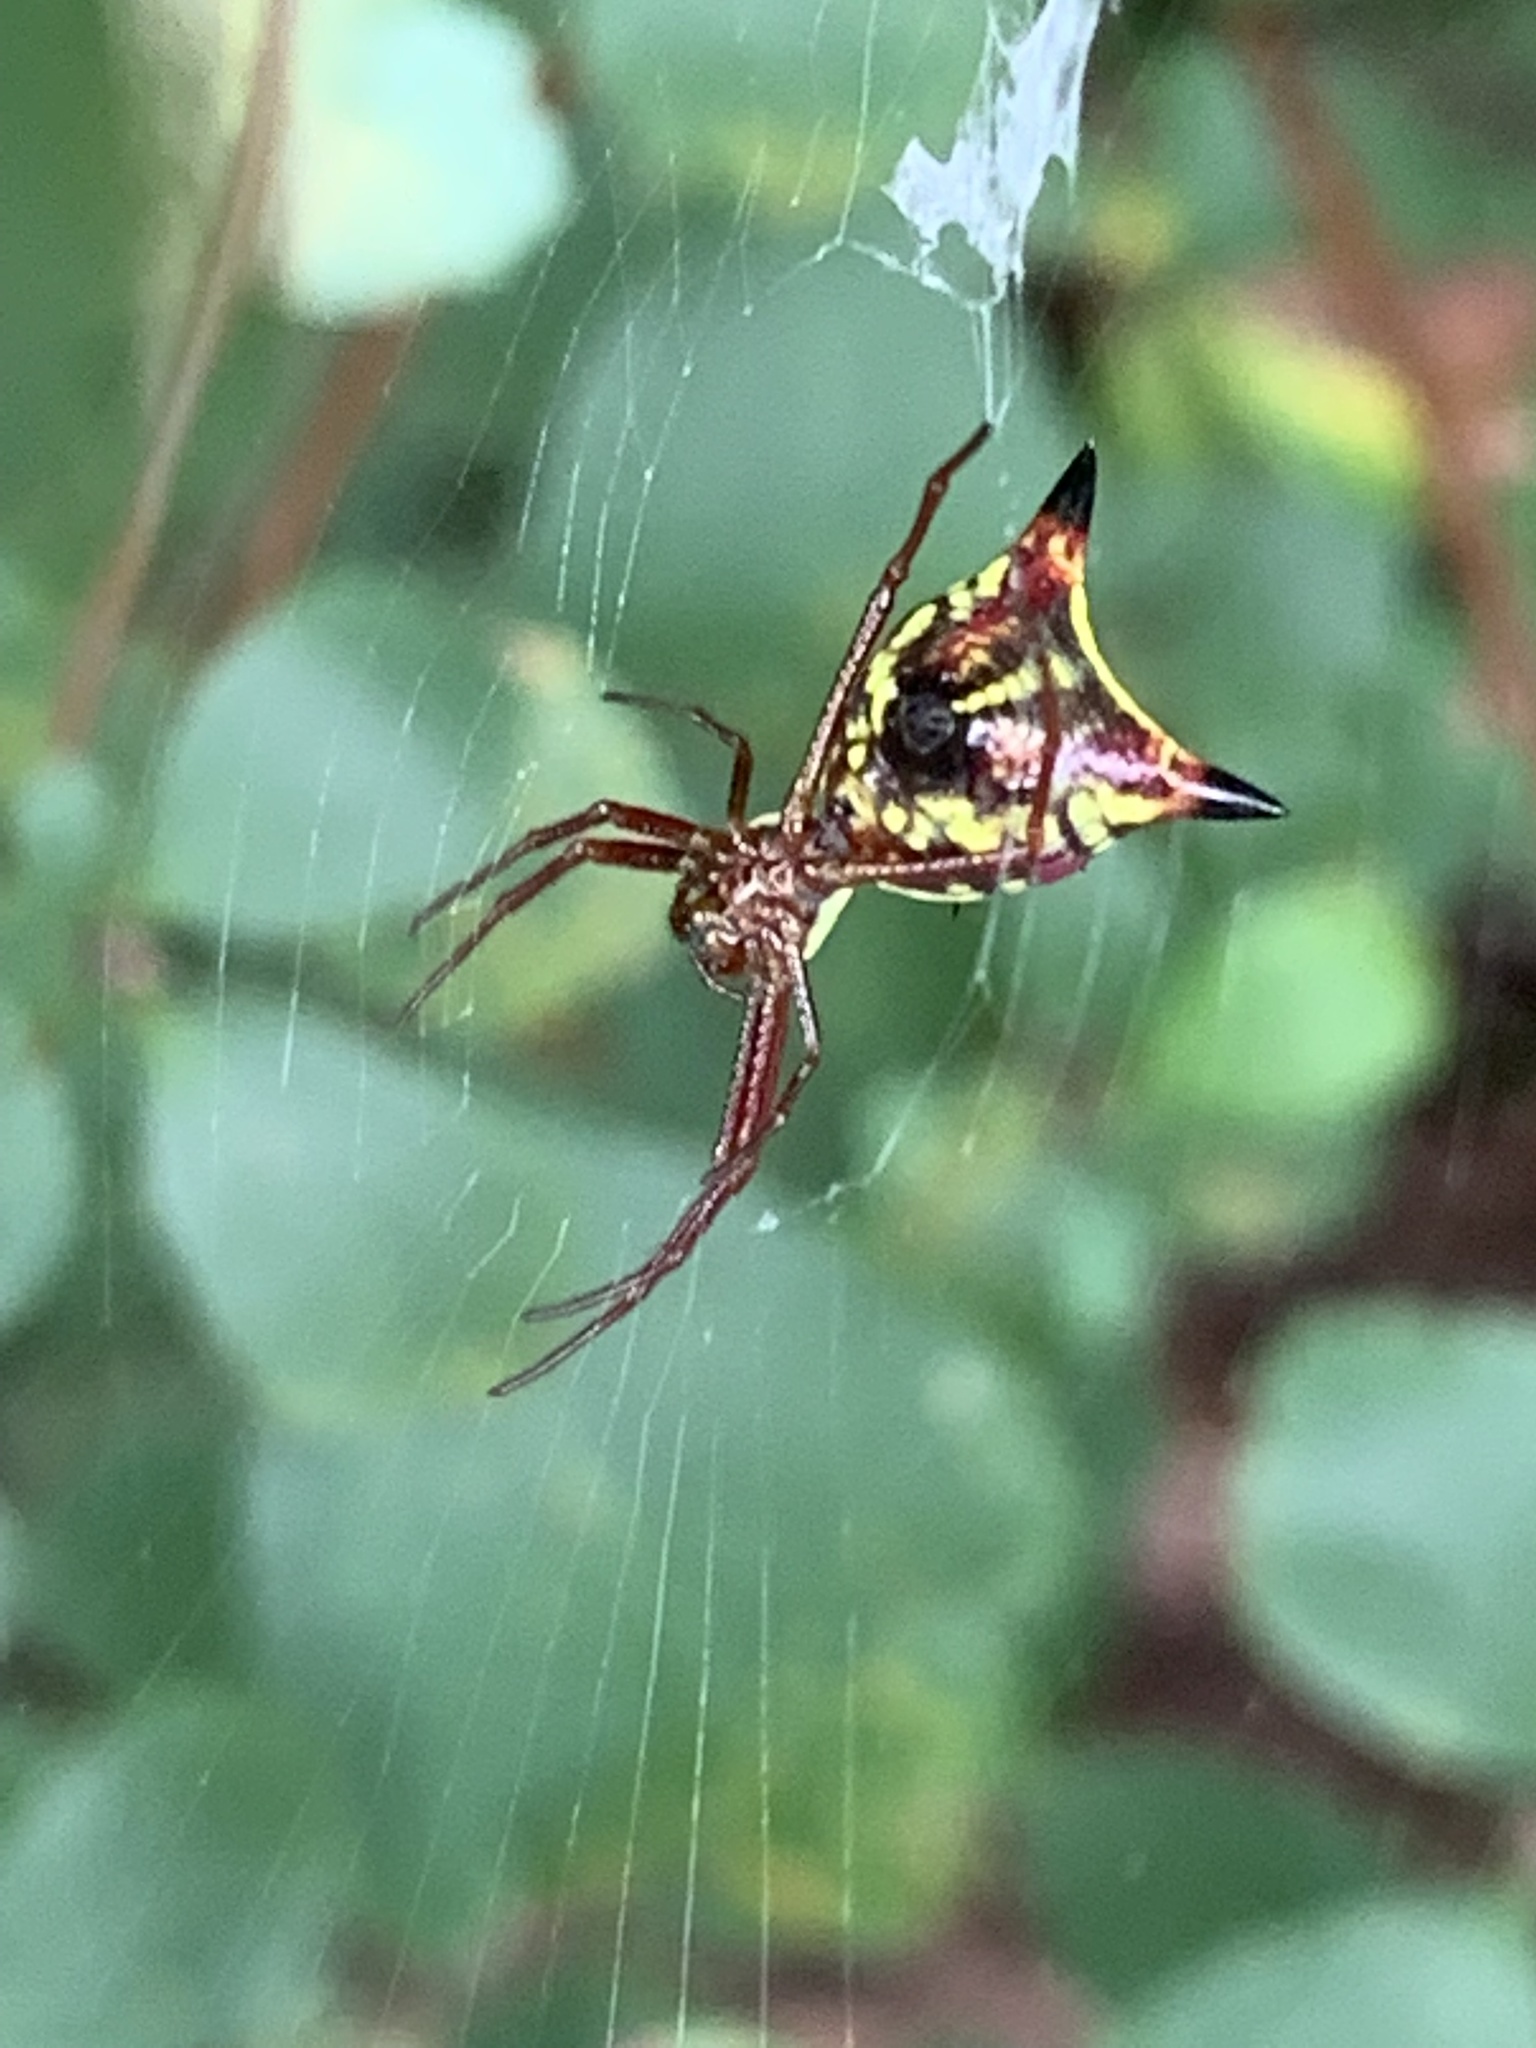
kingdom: Animalia
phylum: Arthropoda
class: Arachnida
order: Araneae
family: Araneidae
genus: Micrathena
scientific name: Micrathena sagittata
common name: Orb weavers
